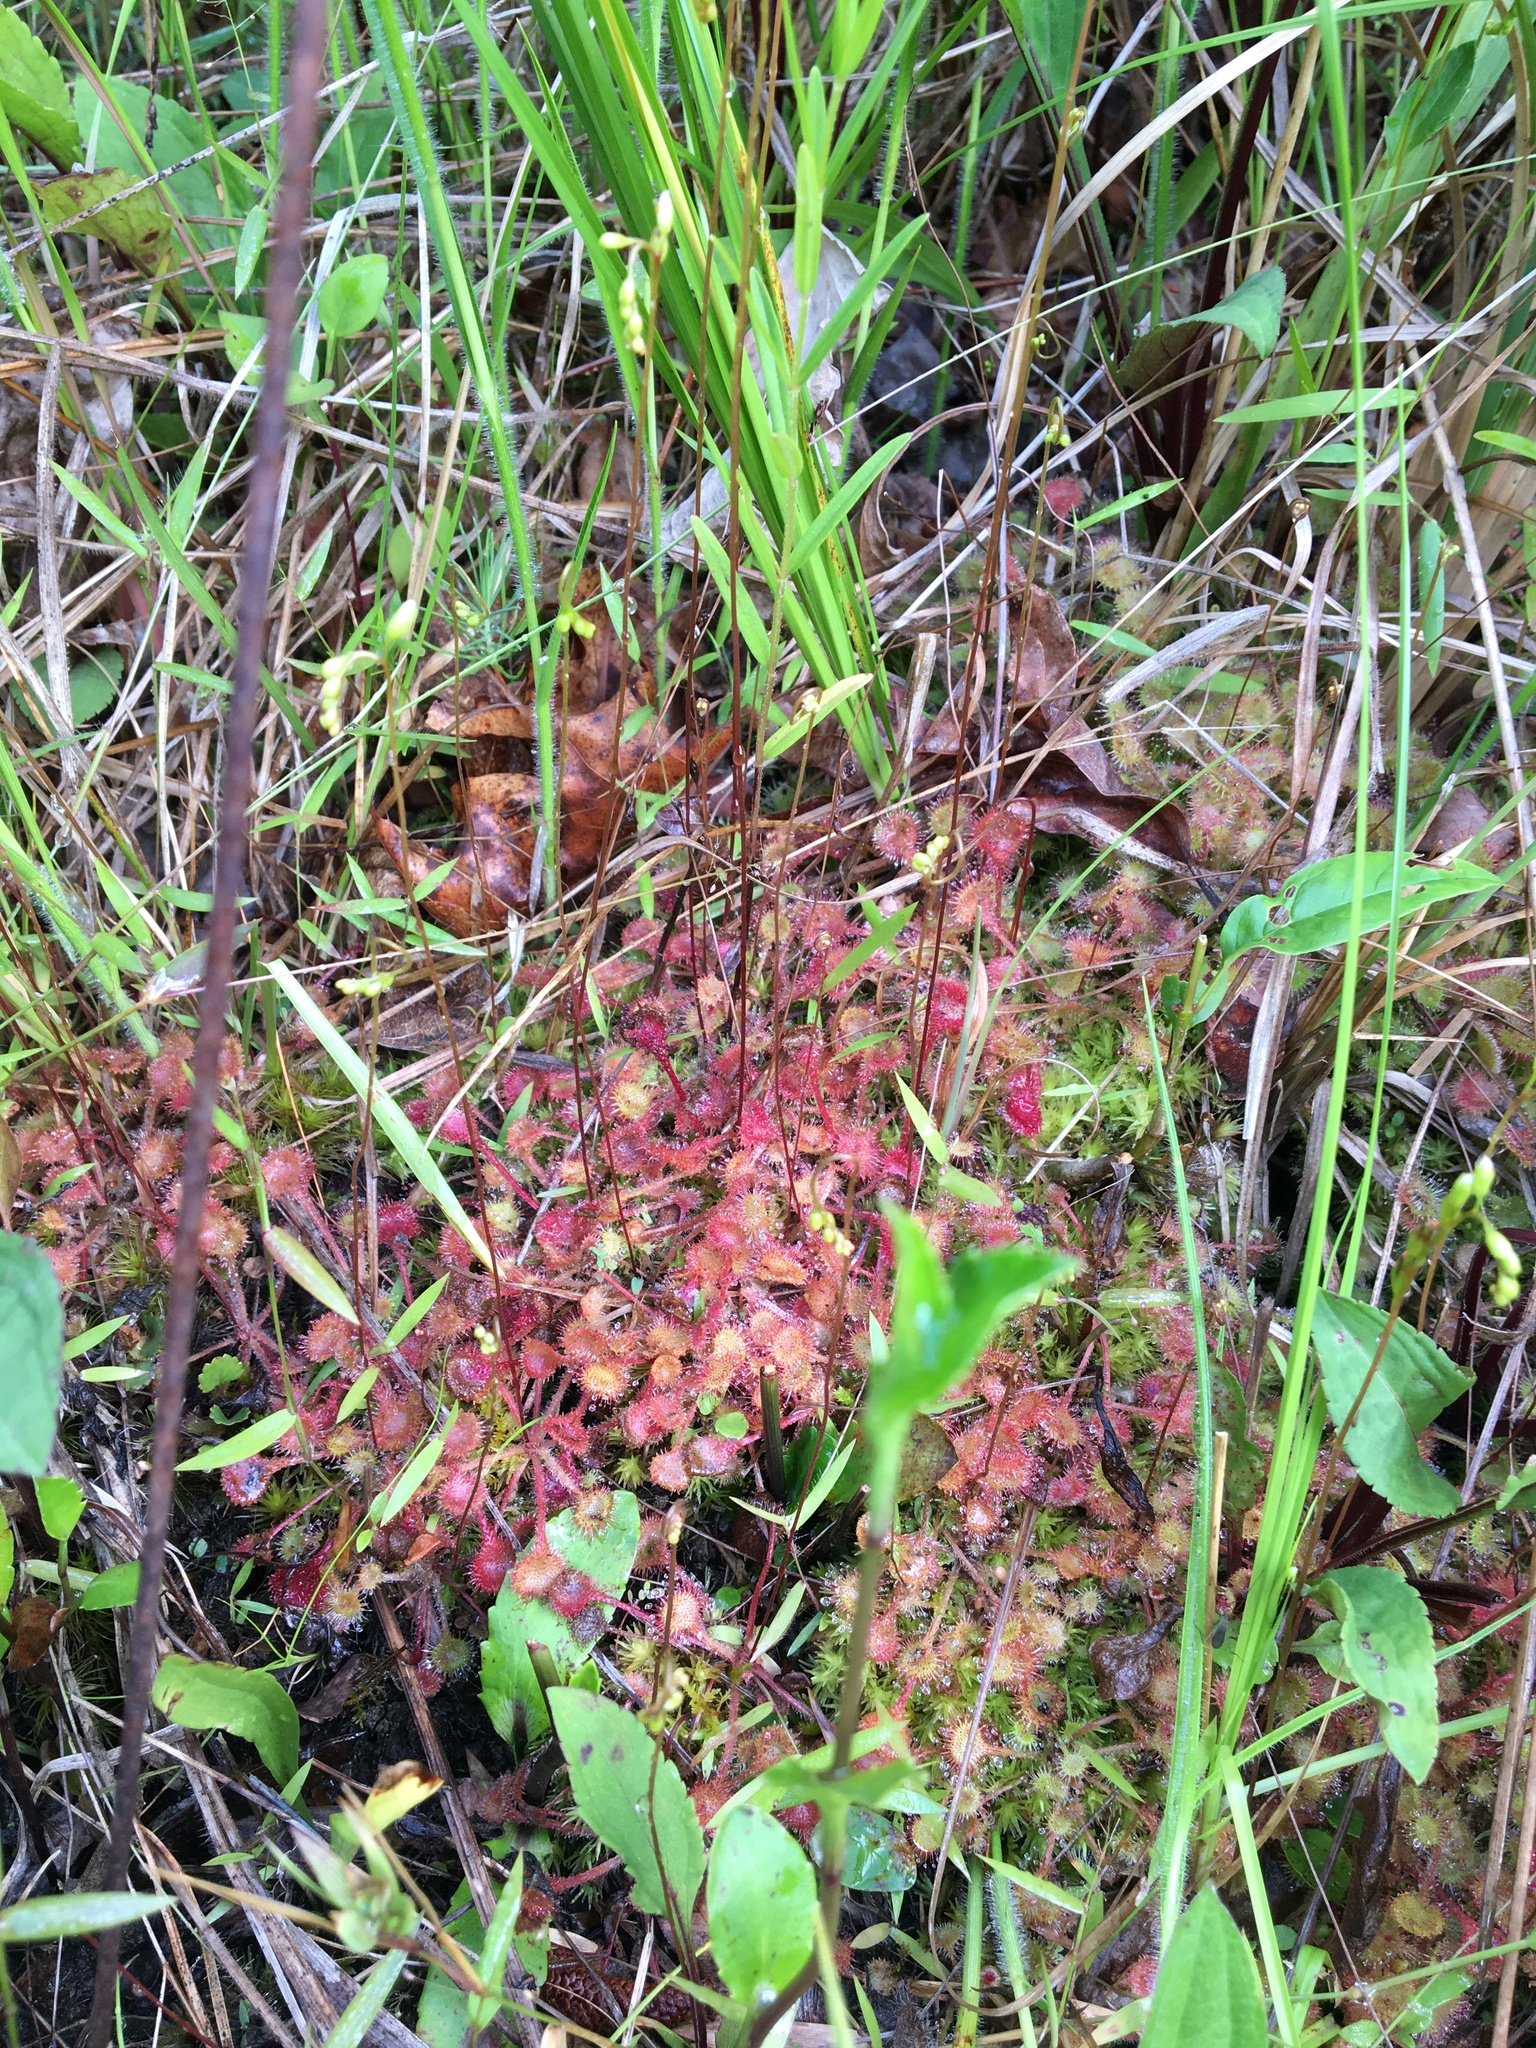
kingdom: Plantae
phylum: Tracheophyta
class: Magnoliopsida
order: Caryophyllales
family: Droseraceae
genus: Drosera
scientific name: Drosera rotundifolia
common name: Round-leaved sundew
